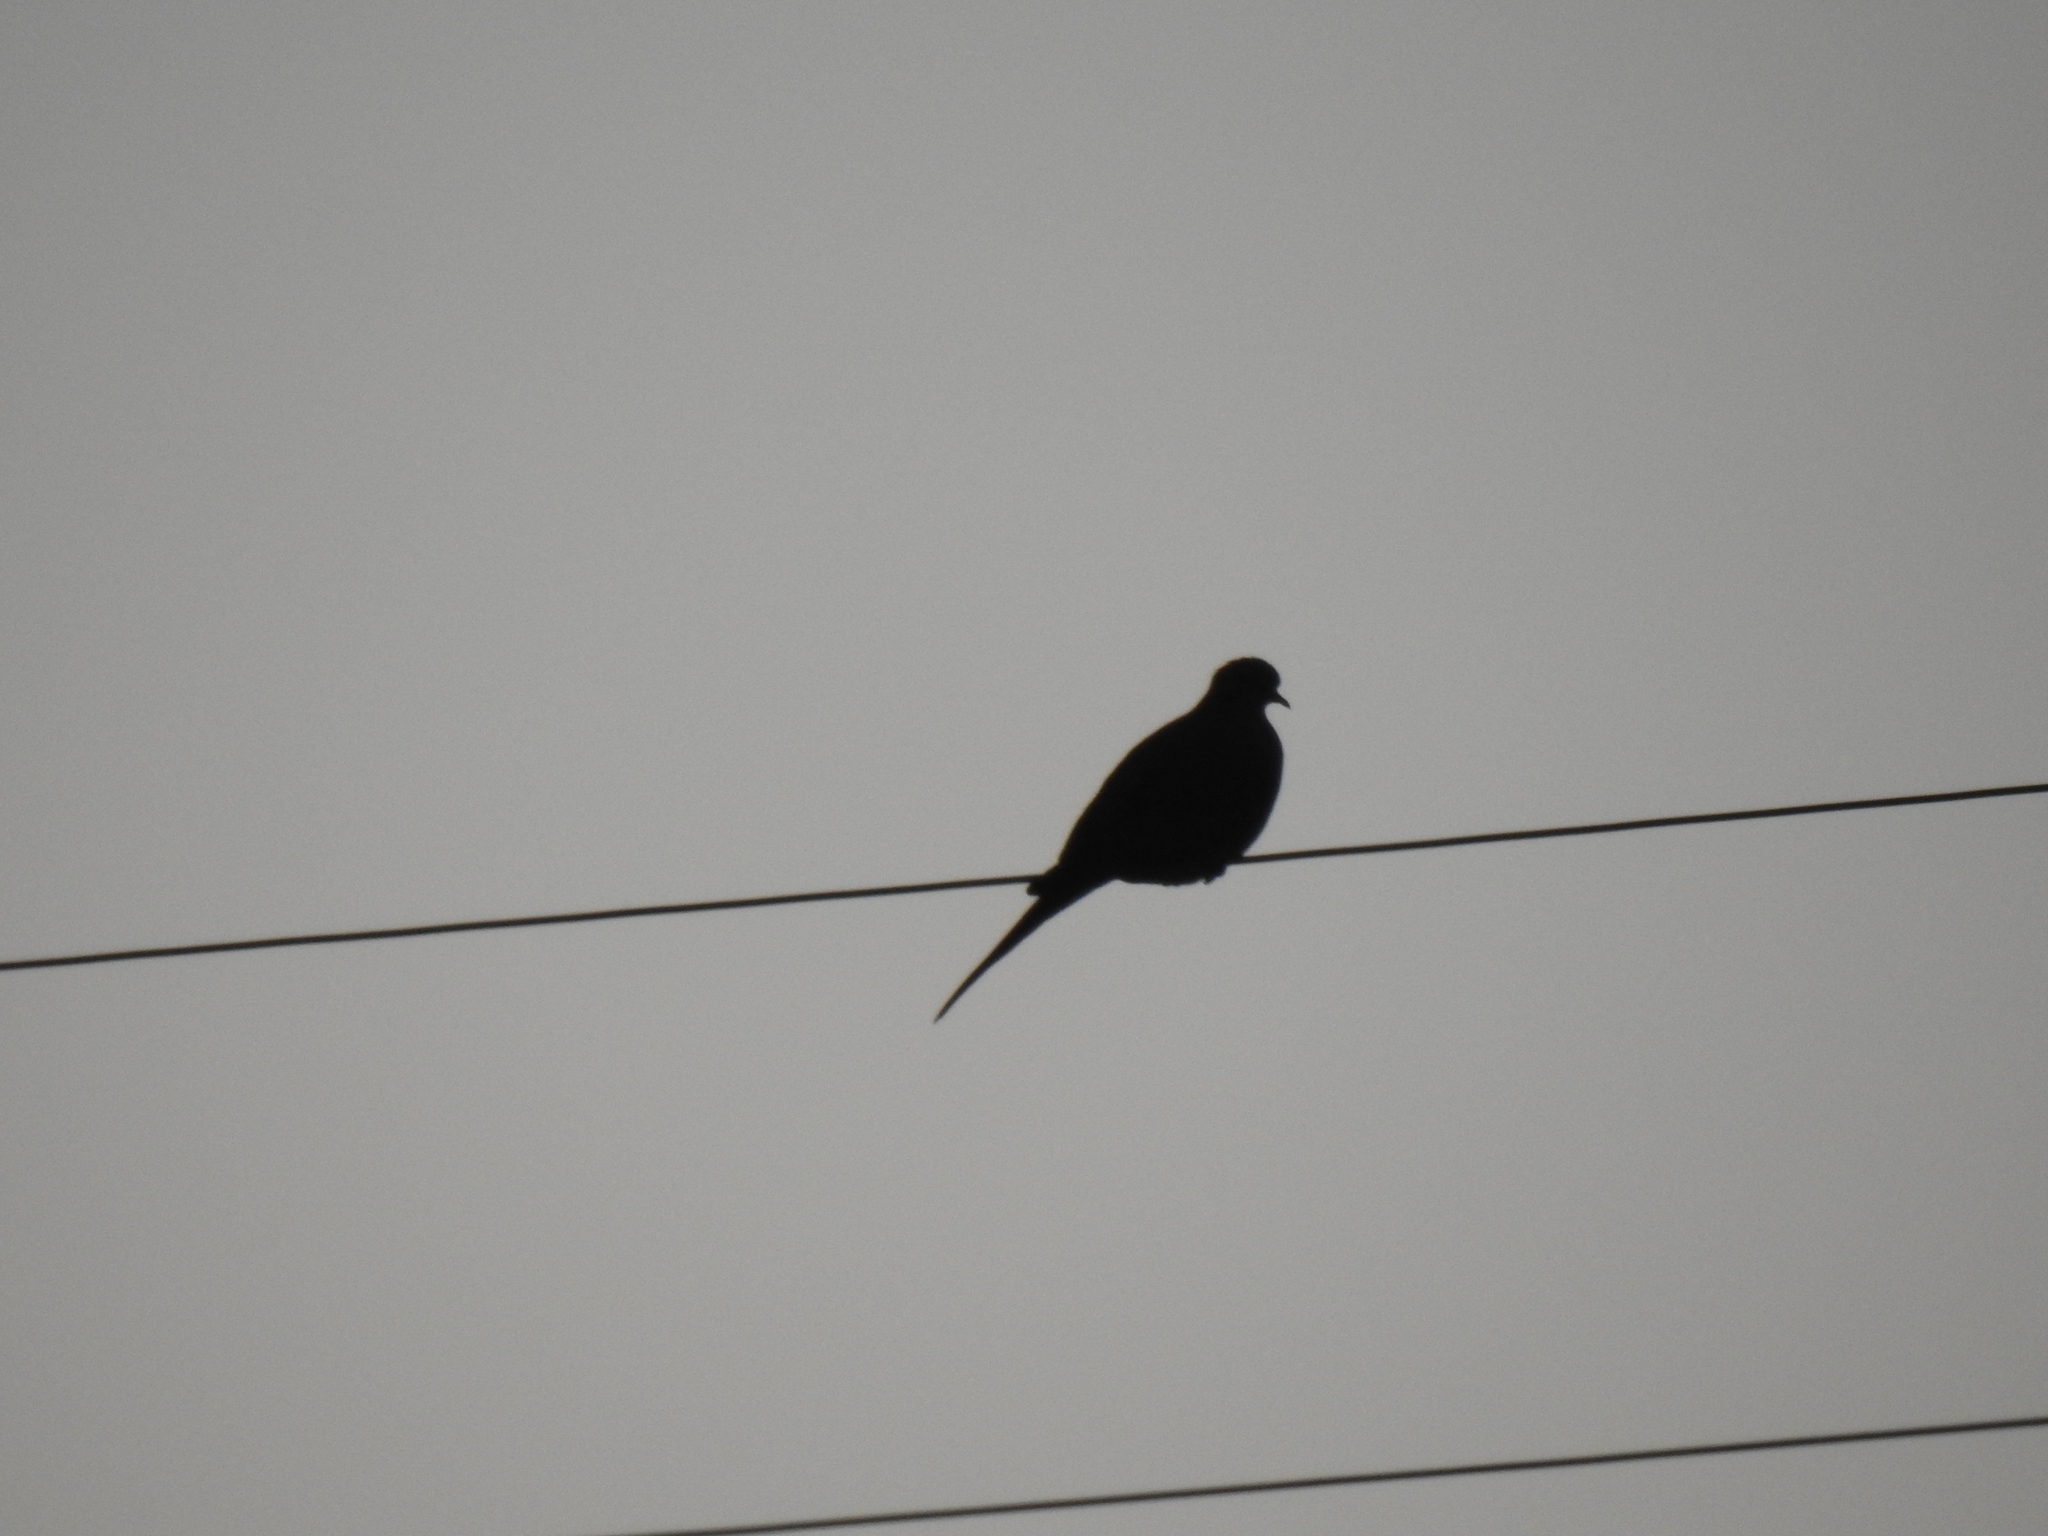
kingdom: Animalia
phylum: Chordata
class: Aves
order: Columbiformes
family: Columbidae
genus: Zenaida
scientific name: Zenaida macroura
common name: Mourning dove
